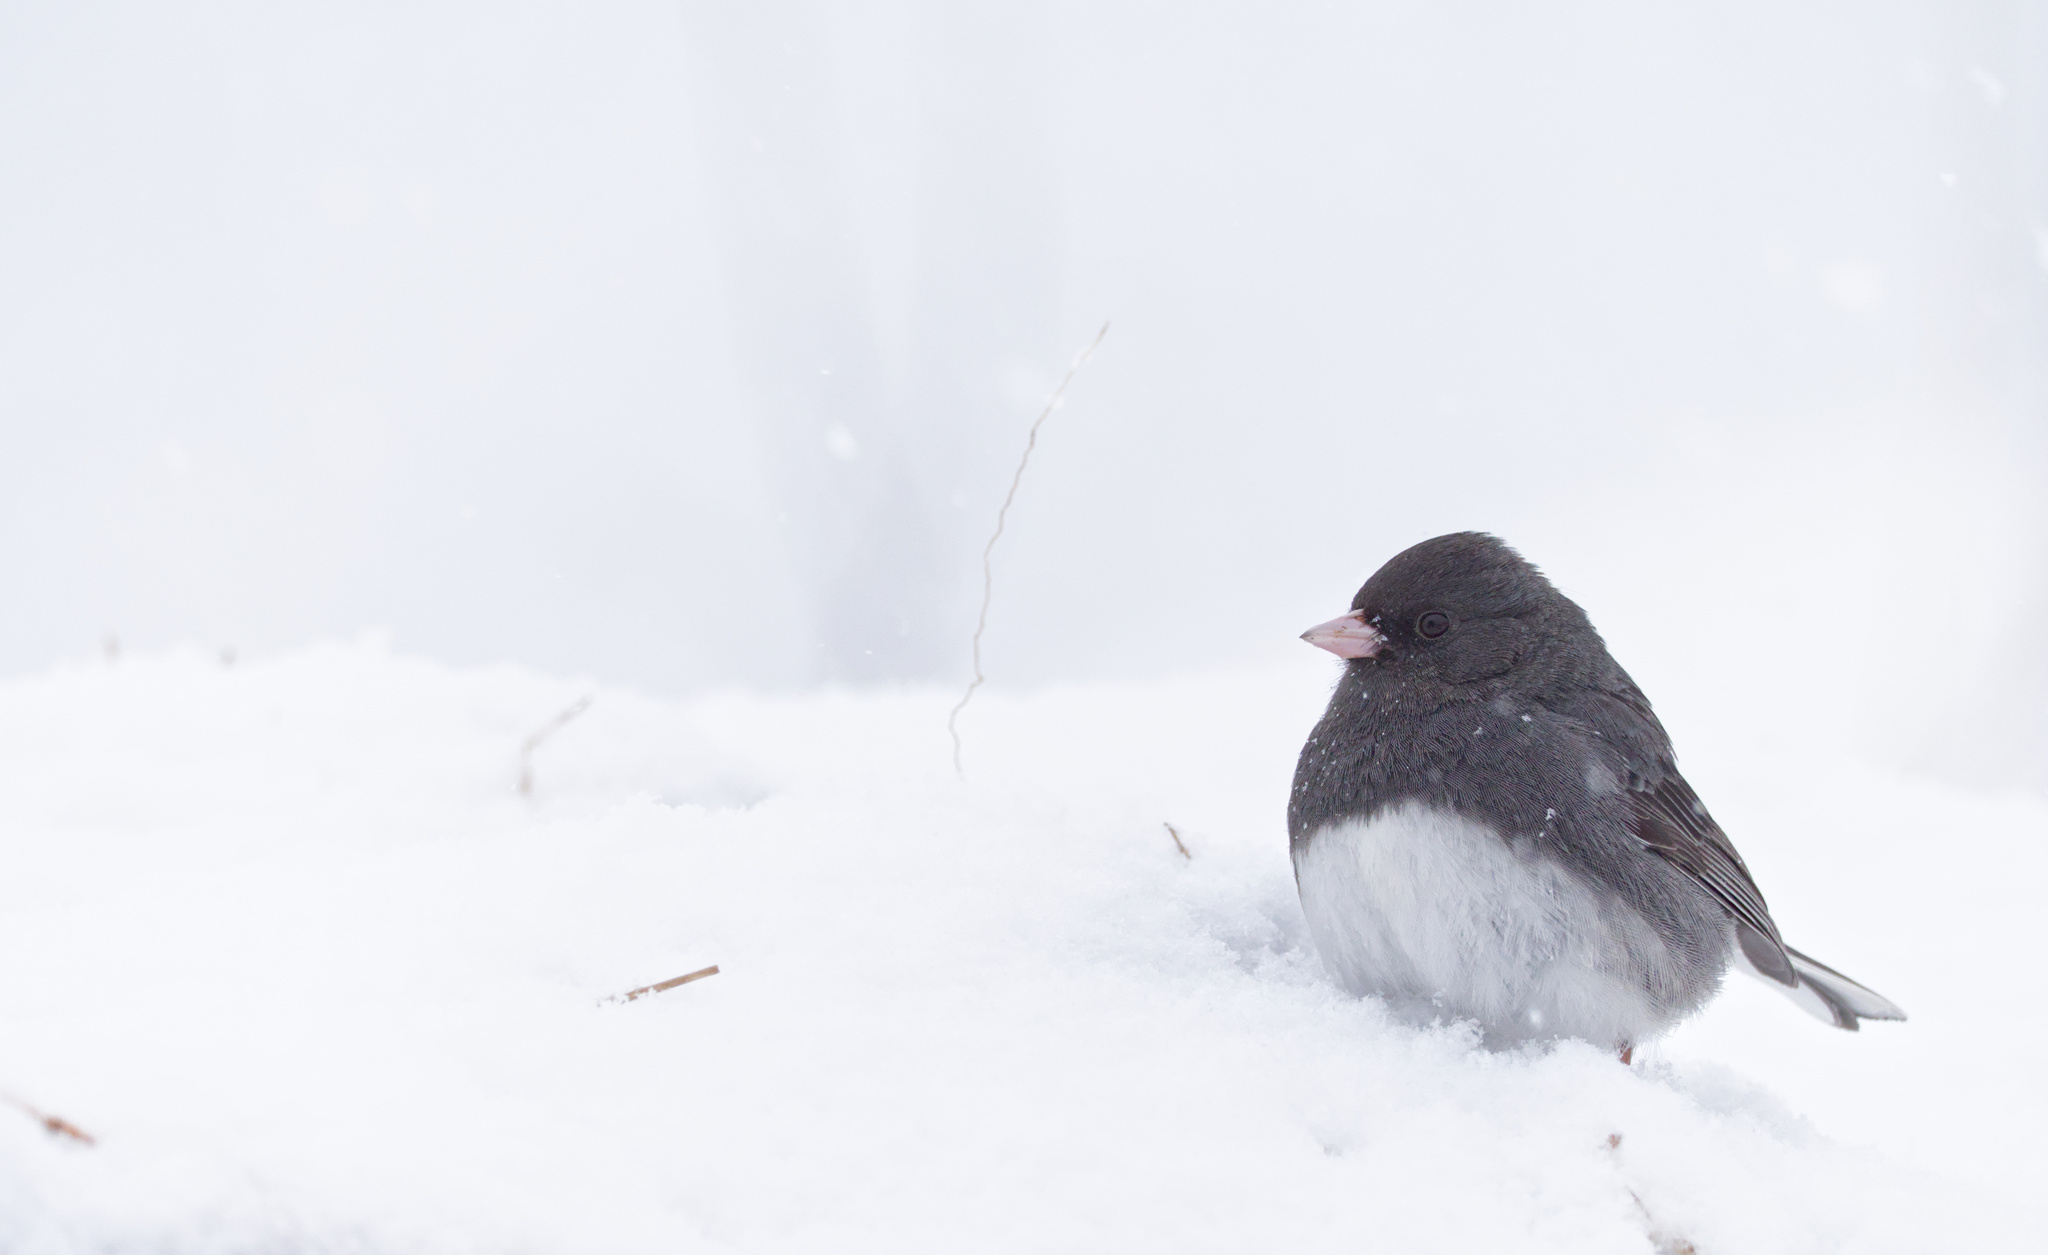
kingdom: Animalia
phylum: Chordata
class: Aves
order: Passeriformes
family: Passerellidae
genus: Junco
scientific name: Junco hyemalis
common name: Dark-eyed junco
